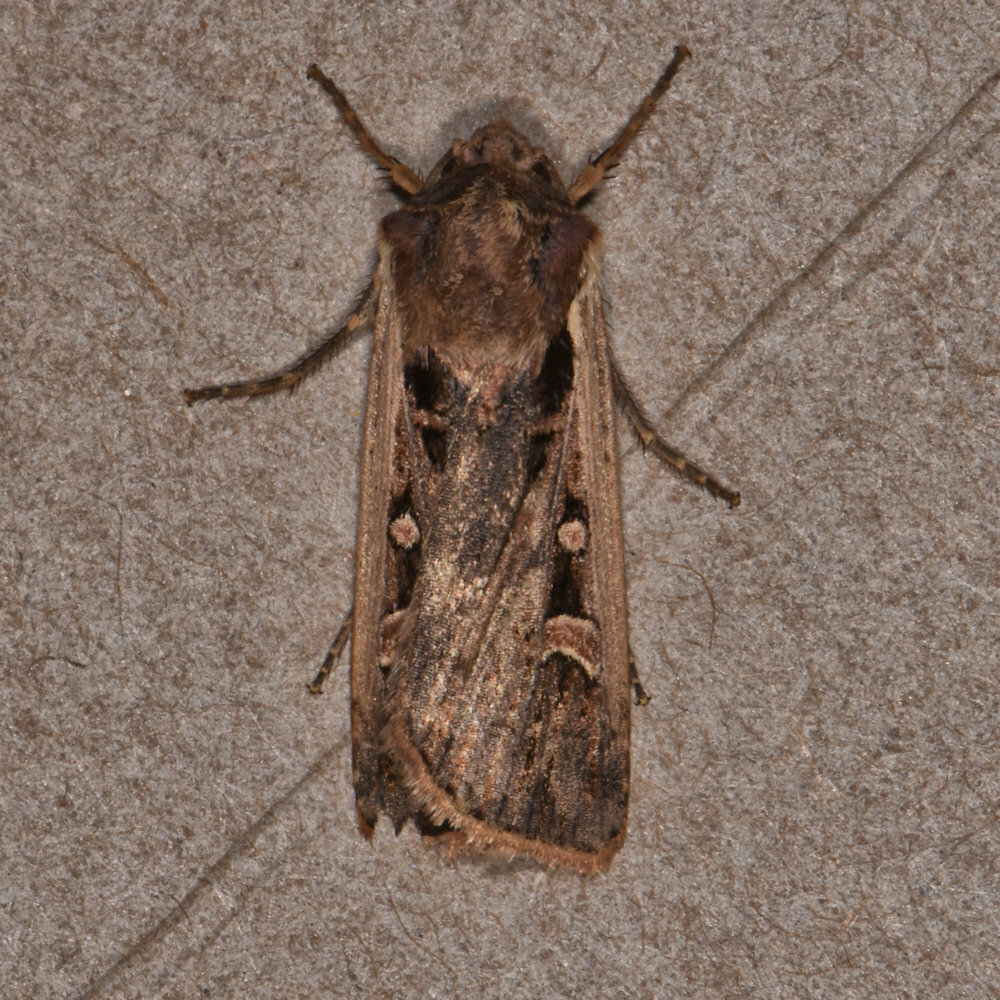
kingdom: Animalia
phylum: Arthropoda
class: Insecta
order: Lepidoptera
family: Noctuidae
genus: Striacosta
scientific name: Striacosta albicosta
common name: Western bean cutworm moth
